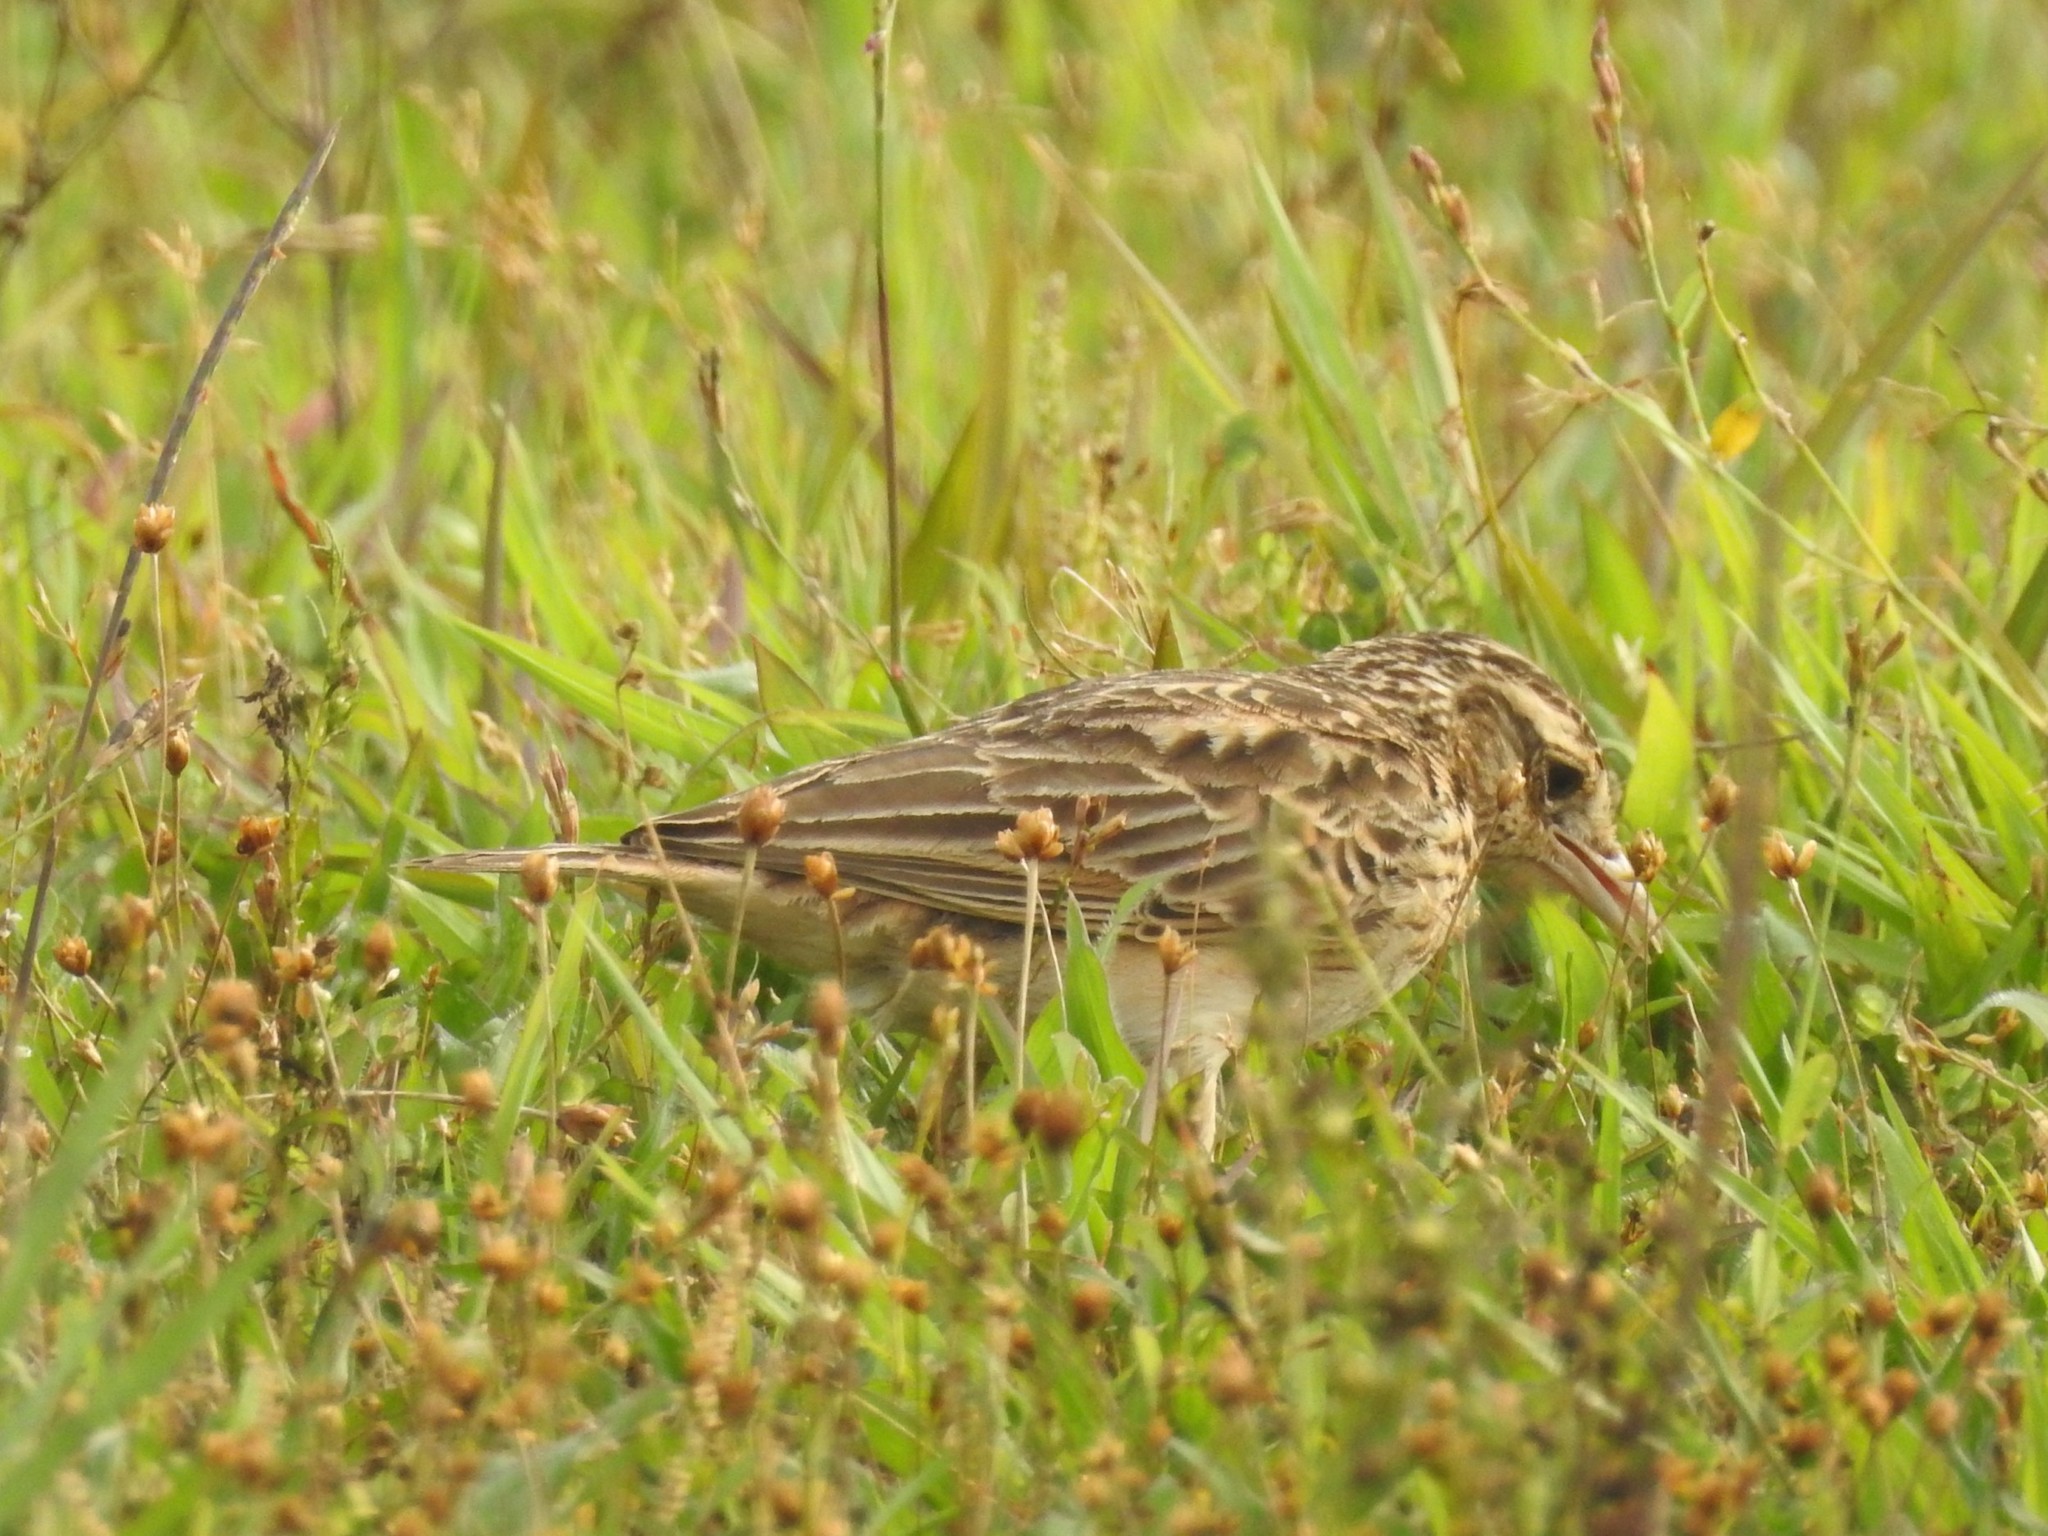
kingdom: Animalia
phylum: Chordata
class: Aves
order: Passeriformes
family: Alaudidae
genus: Mirafra
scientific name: Mirafra affinis
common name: Jerdon's bushlark
